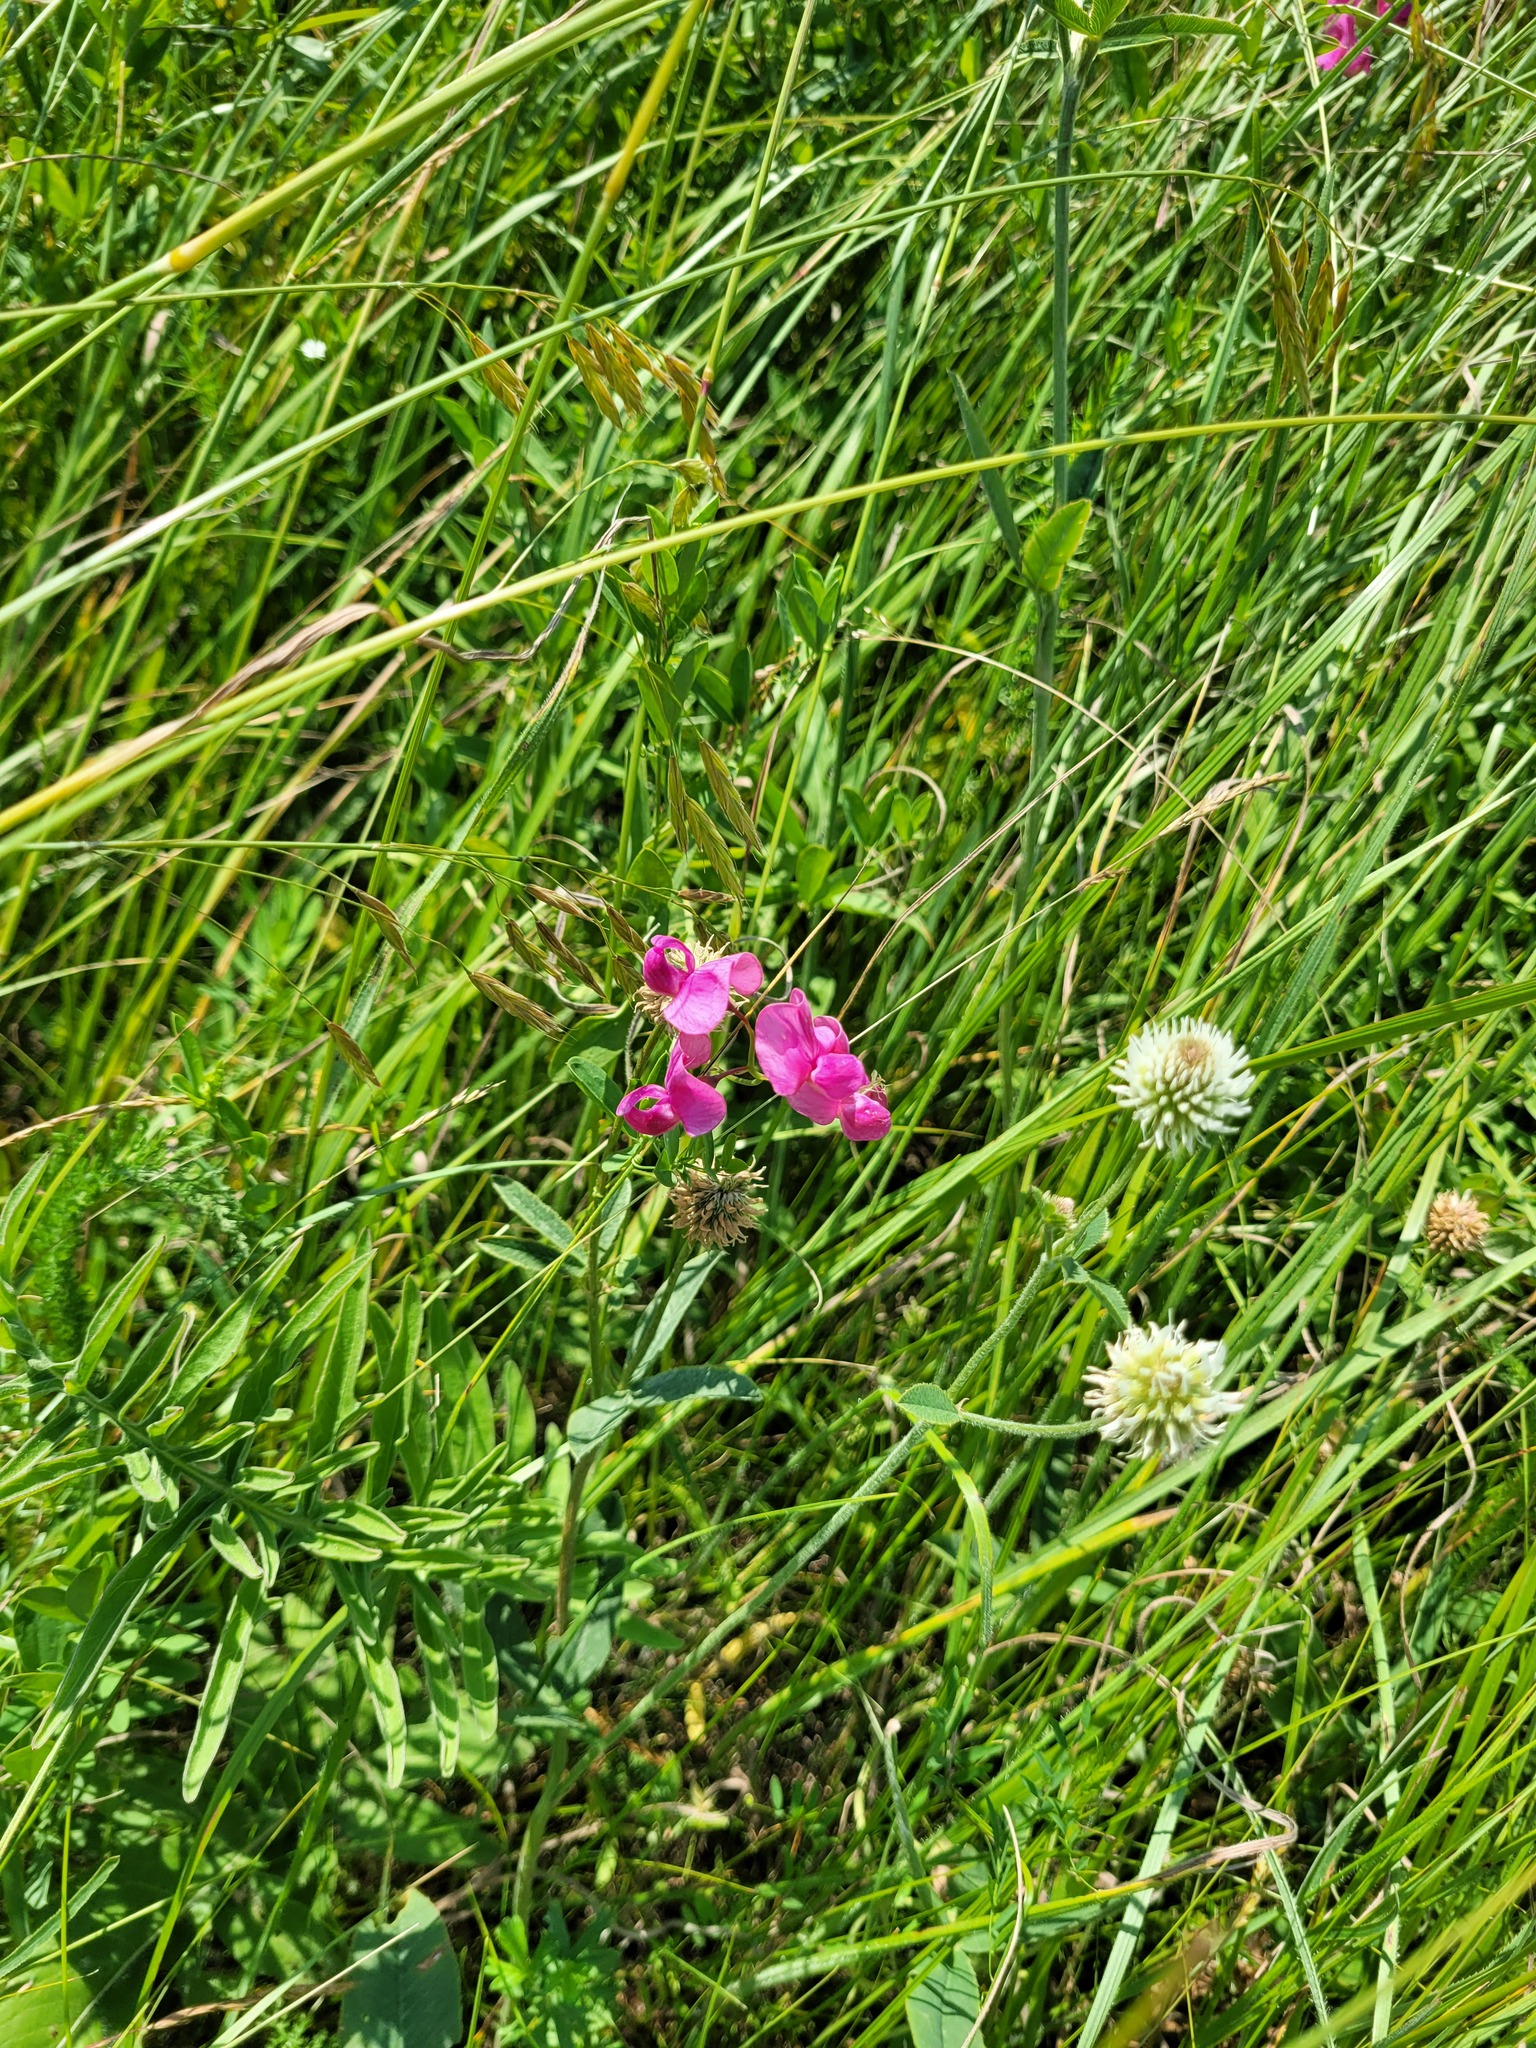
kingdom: Plantae
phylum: Tracheophyta
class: Magnoliopsida
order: Fabales
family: Fabaceae
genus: Lathyrus
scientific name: Lathyrus tuberosus
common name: Tuberous pea
